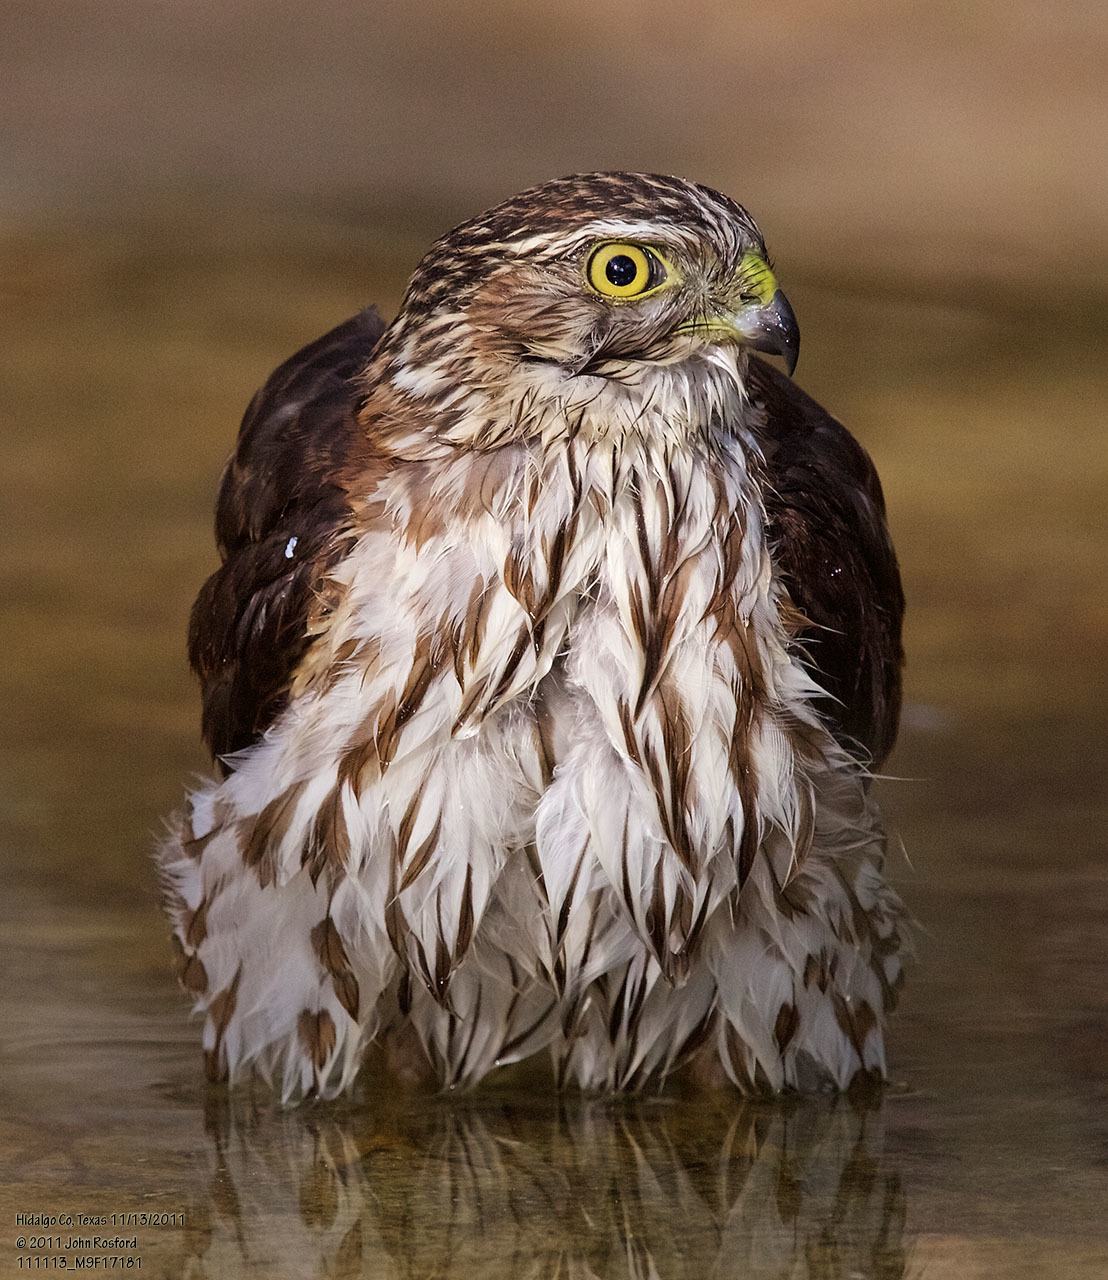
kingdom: Animalia
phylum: Chordata
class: Aves
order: Accipitriformes
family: Accipitridae
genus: Accipiter
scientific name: Accipiter striatus
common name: Sharp-shinned hawk
